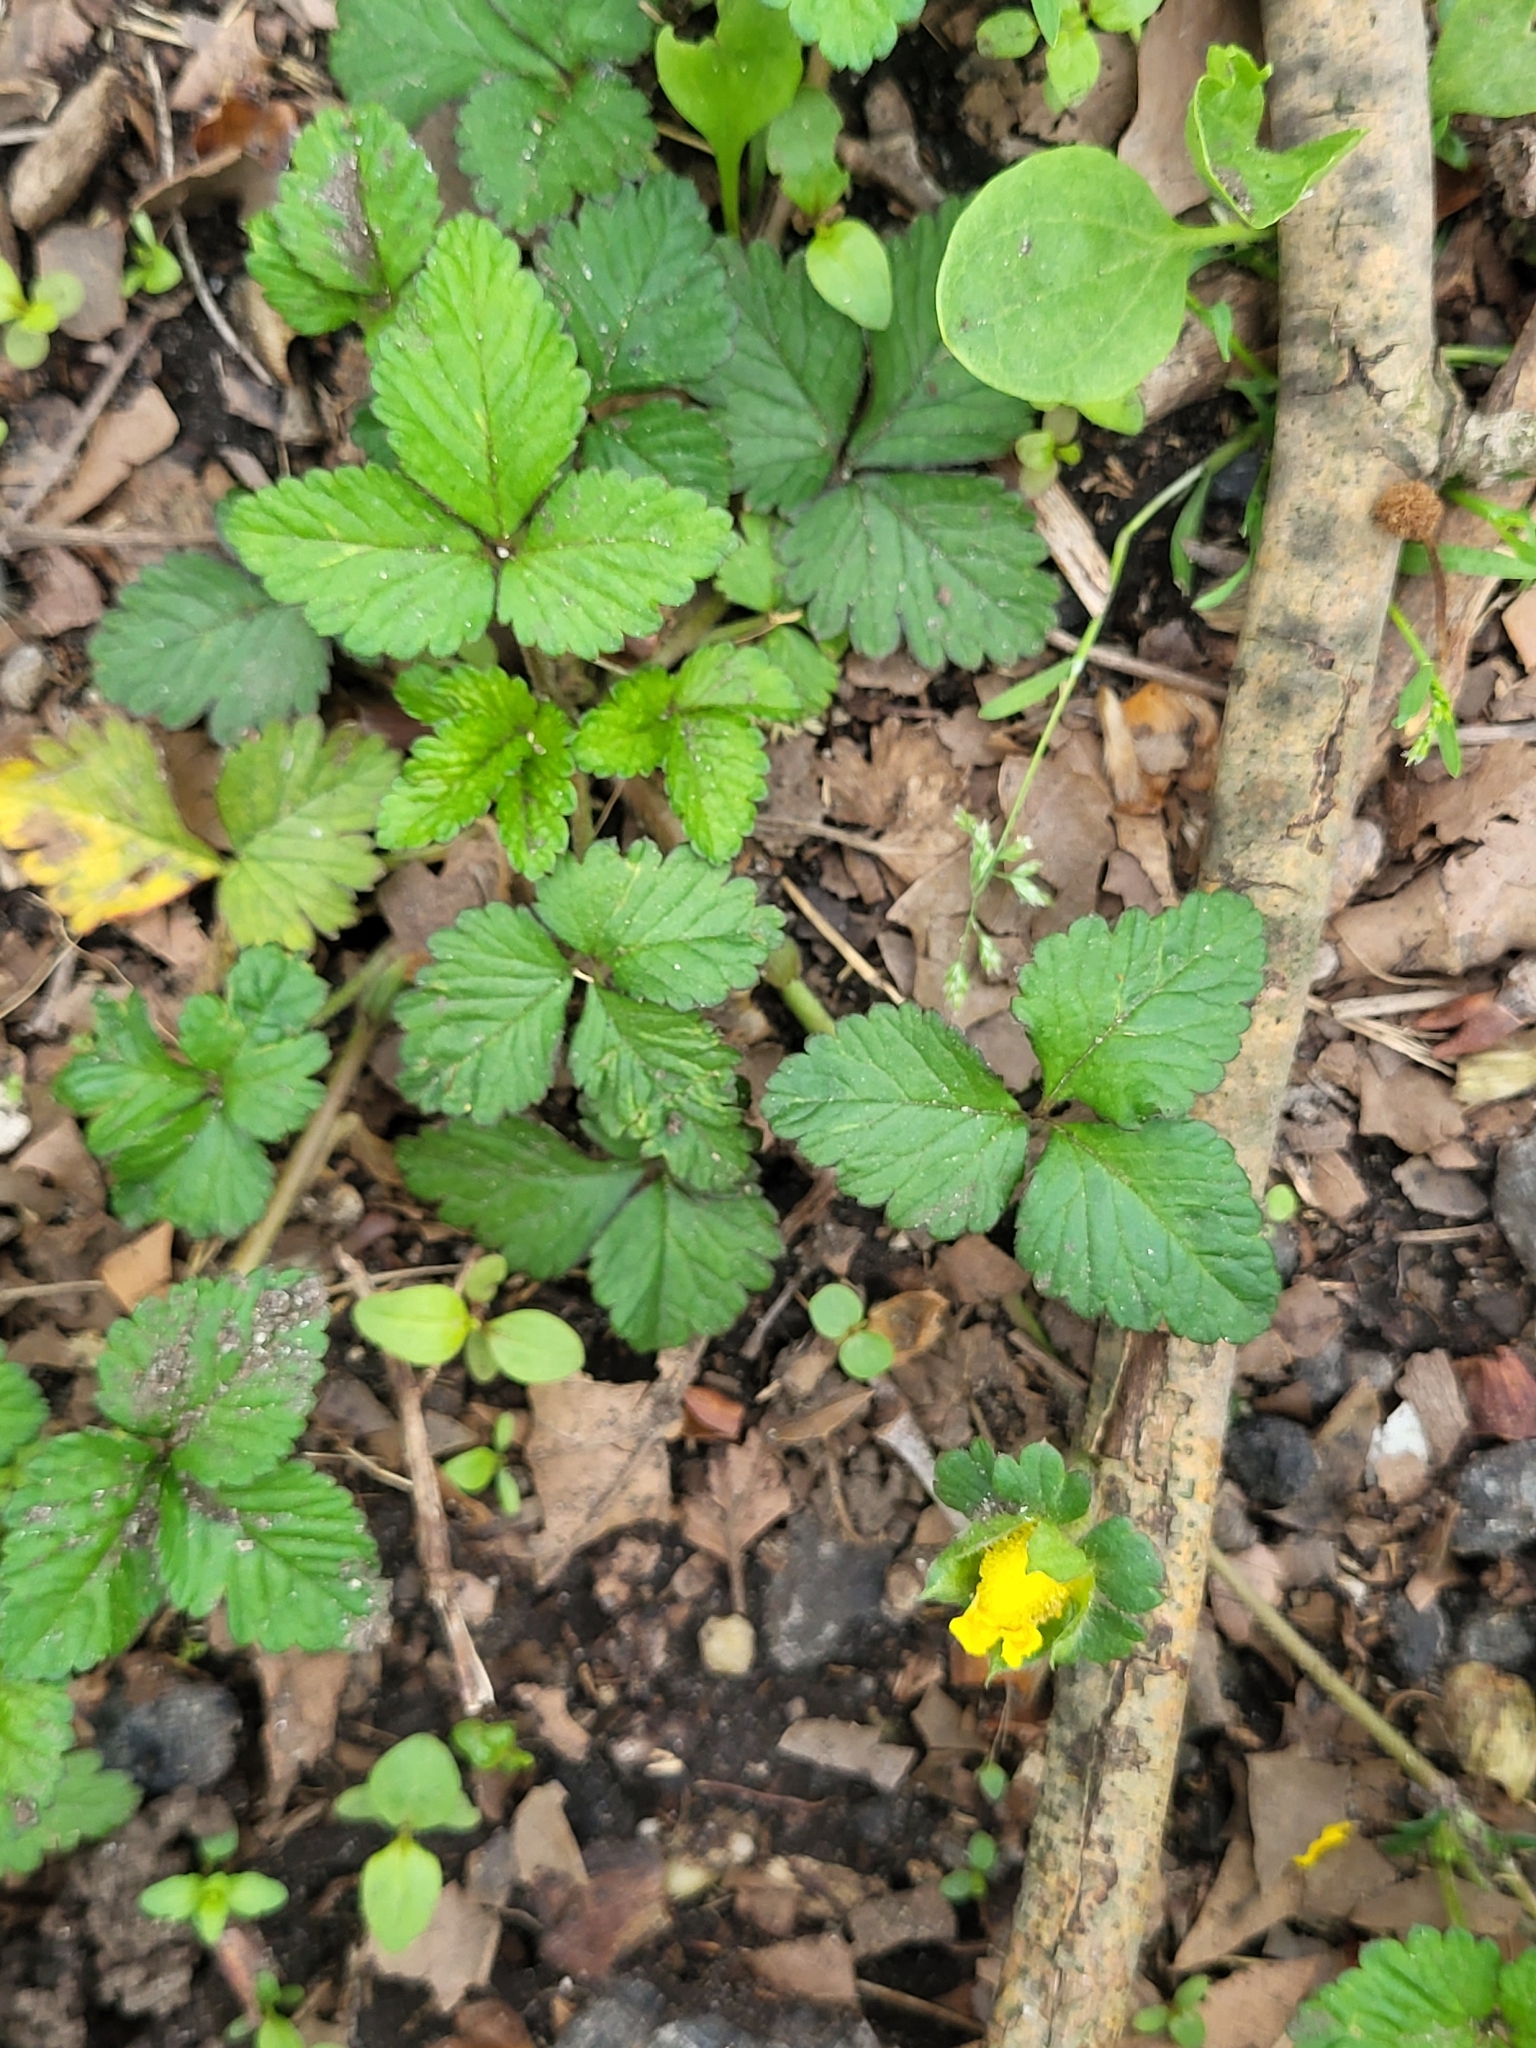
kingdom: Plantae
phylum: Tracheophyta
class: Magnoliopsida
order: Rosales
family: Rosaceae
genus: Potentilla
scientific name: Potentilla indica
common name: Yellow-flowered strawberry
